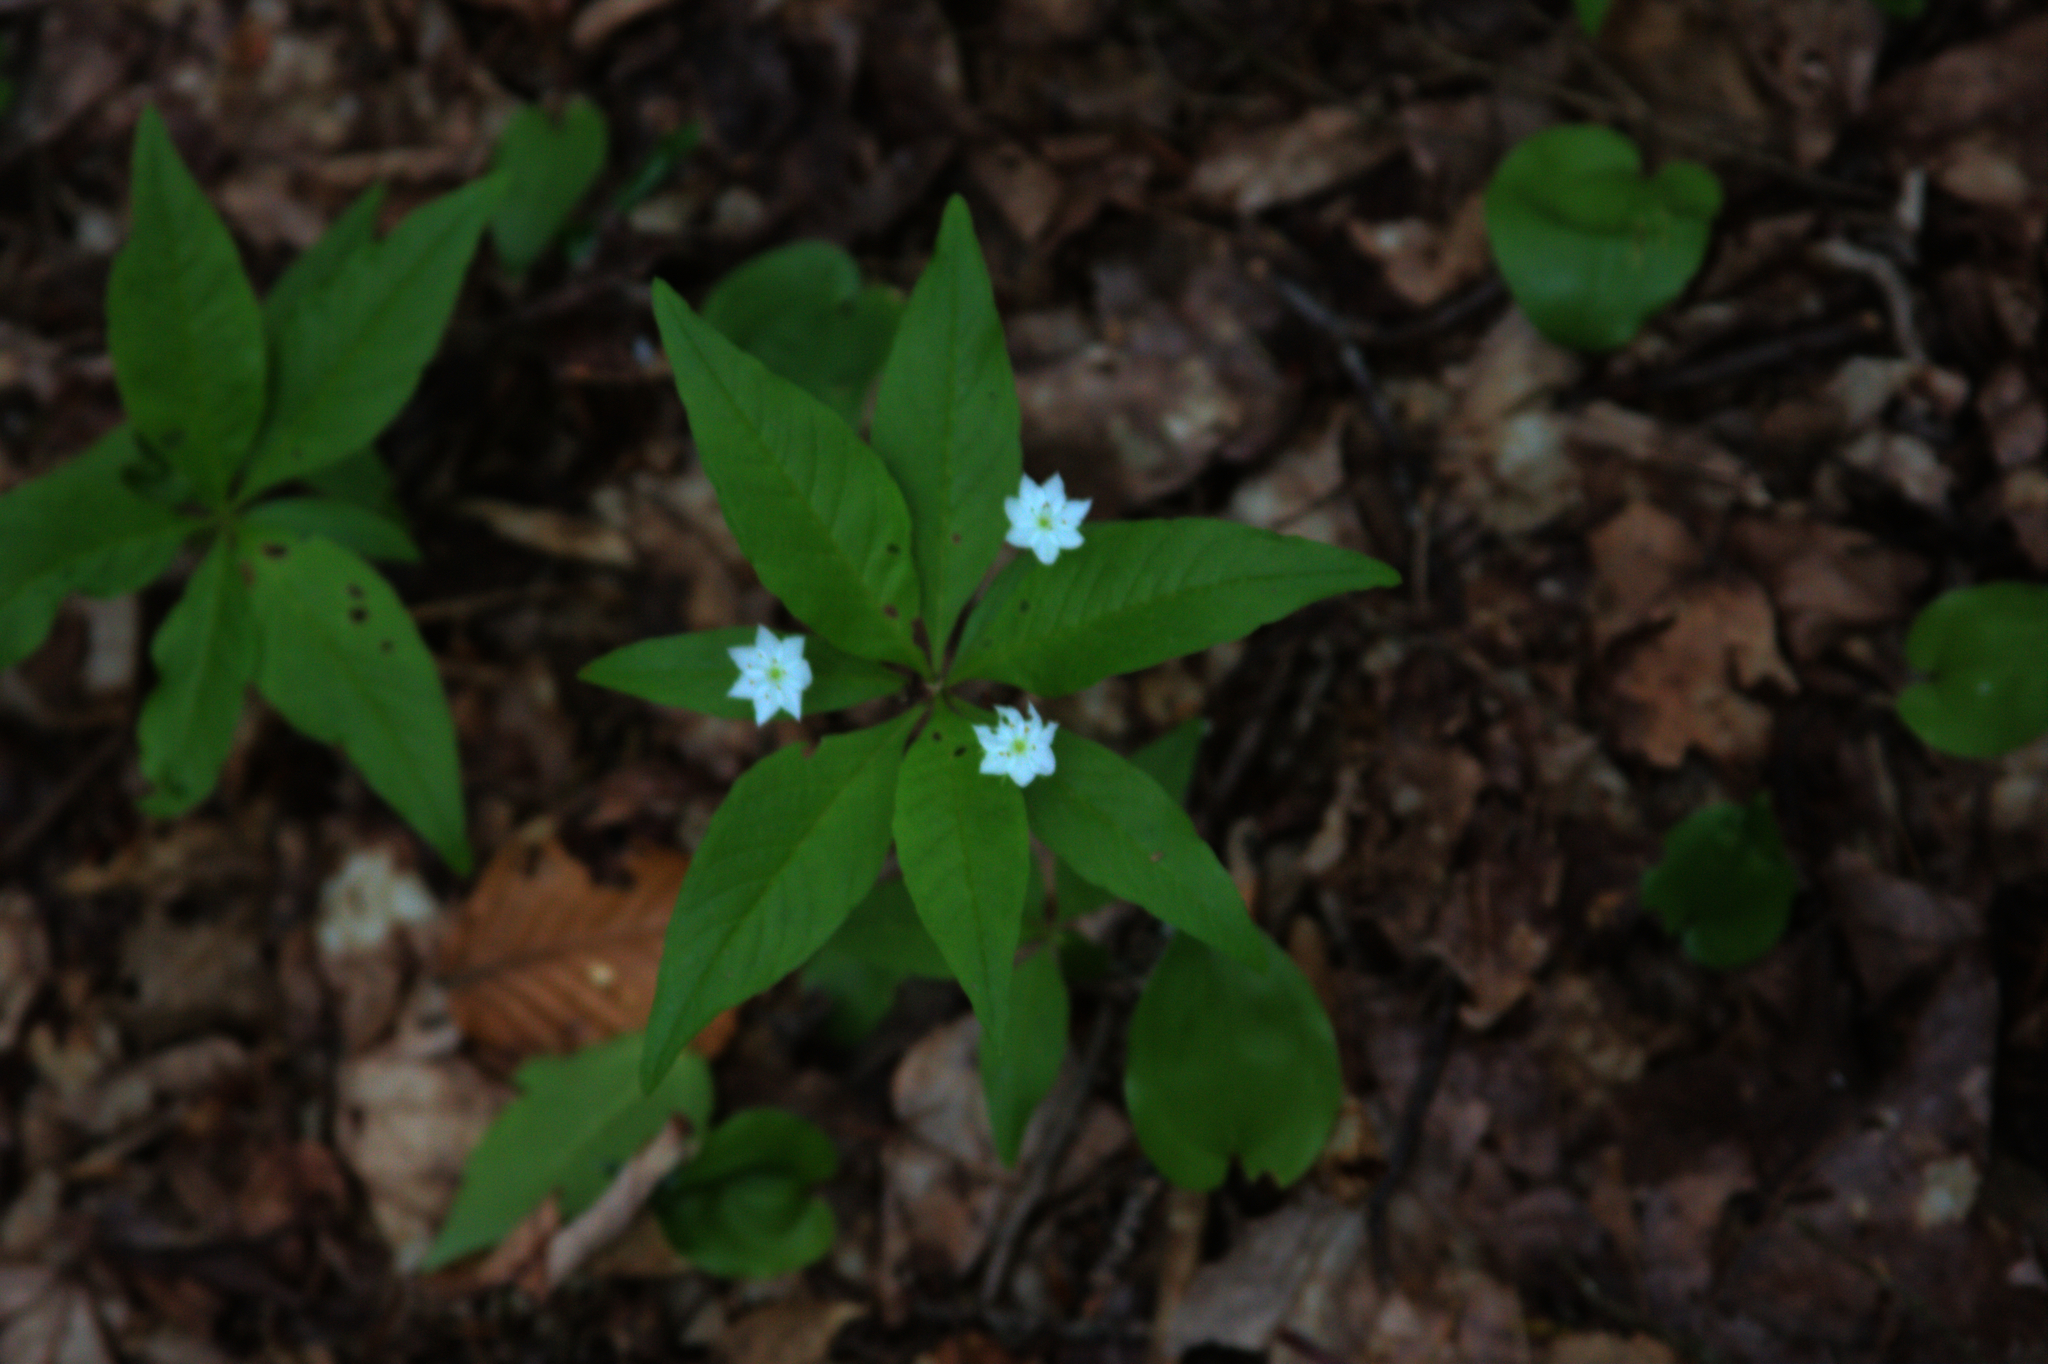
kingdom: Plantae
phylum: Tracheophyta
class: Magnoliopsida
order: Ericales
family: Primulaceae
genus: Lysimachia
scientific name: Lysimachia borealis
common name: American starflower
